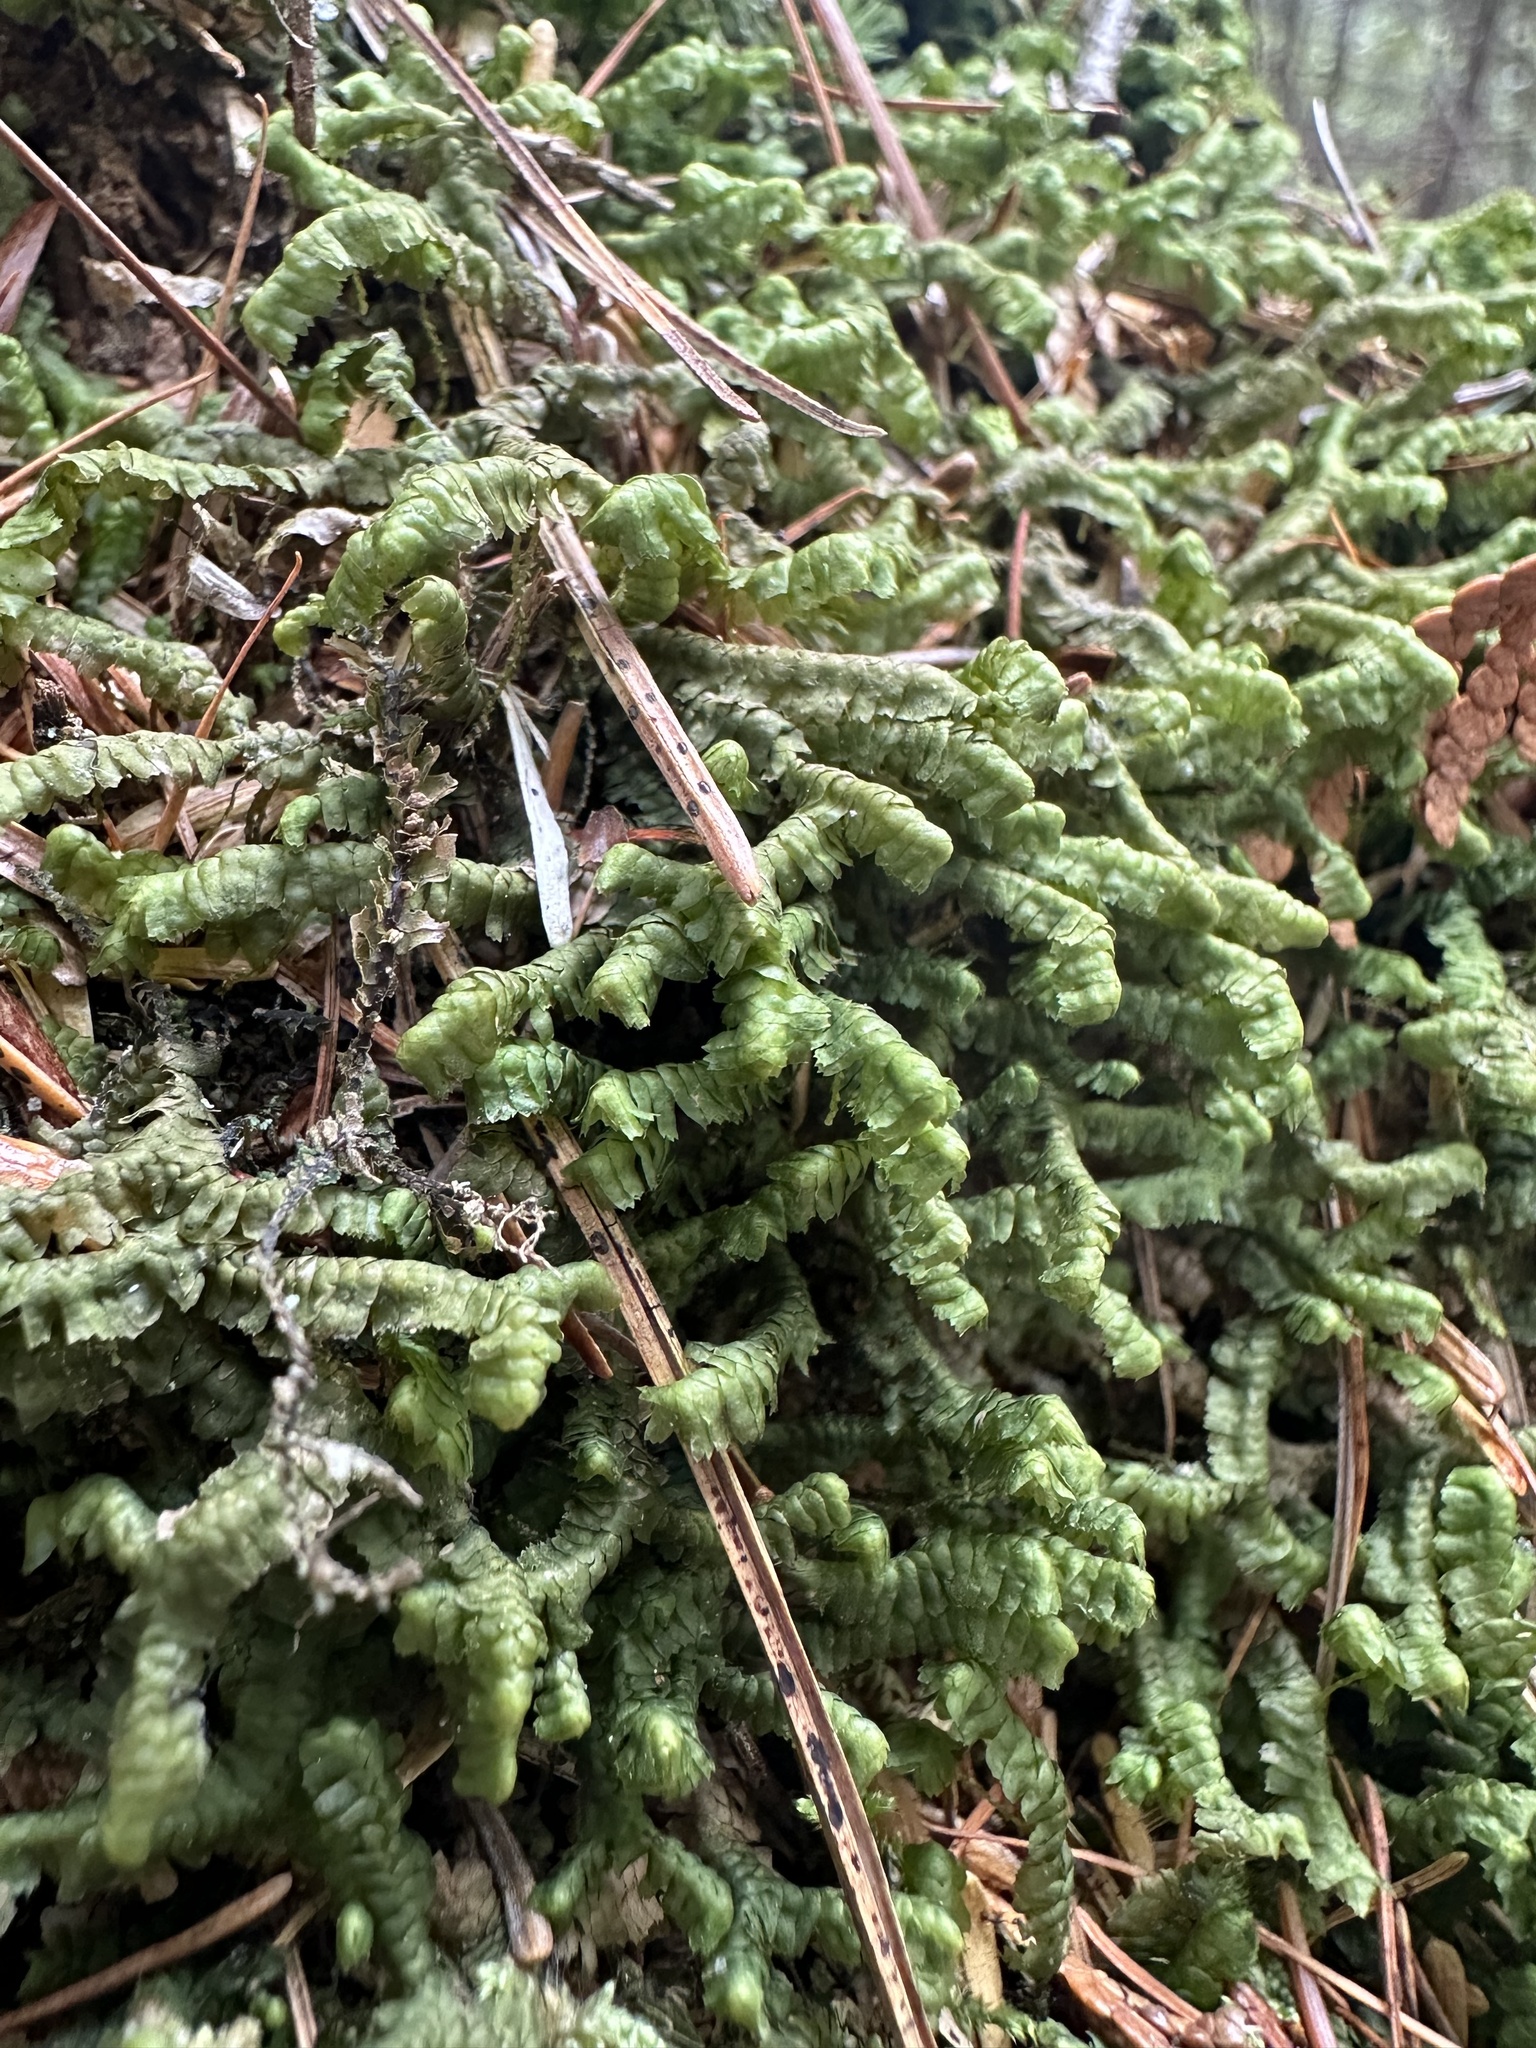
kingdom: Plantae
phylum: Marchantiophyta
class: Jungermanniopsida
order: Jungermanniales
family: Lepidoziaceae
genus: Bazzania
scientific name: Bazzania trilobata
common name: Three-lobed whipwort
